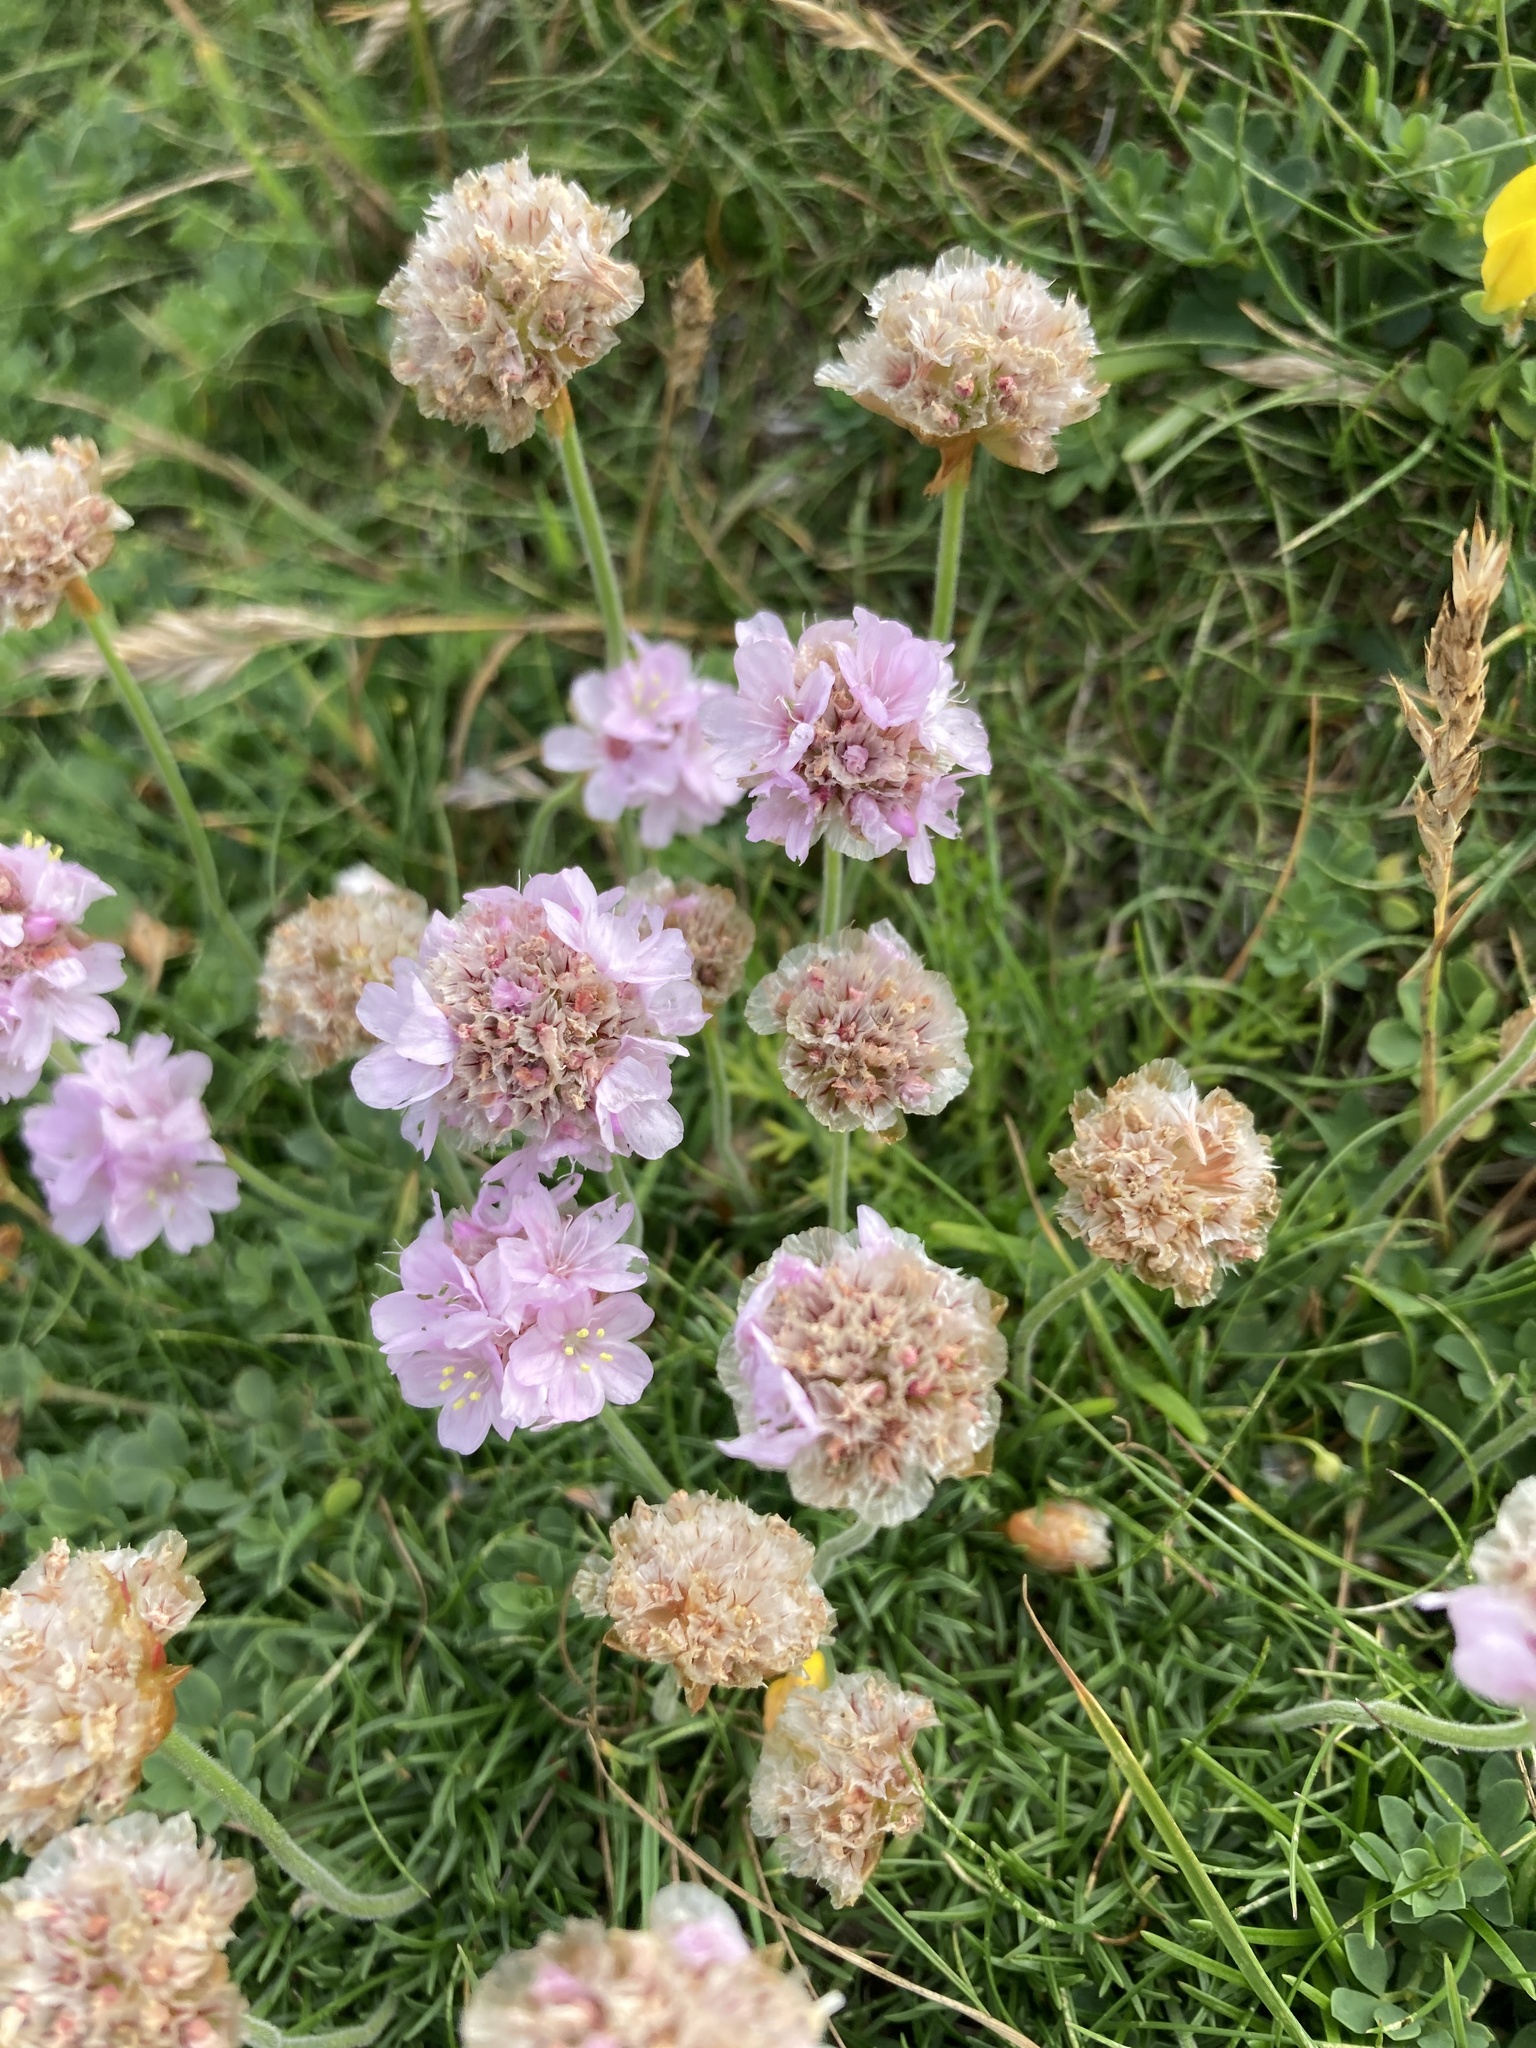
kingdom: Plantae
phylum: Tracheophyta
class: Magnoliopsida
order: Caryophyllales
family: Plumbaginaceae
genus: Armeria
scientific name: Armeria maritima
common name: Thrift
